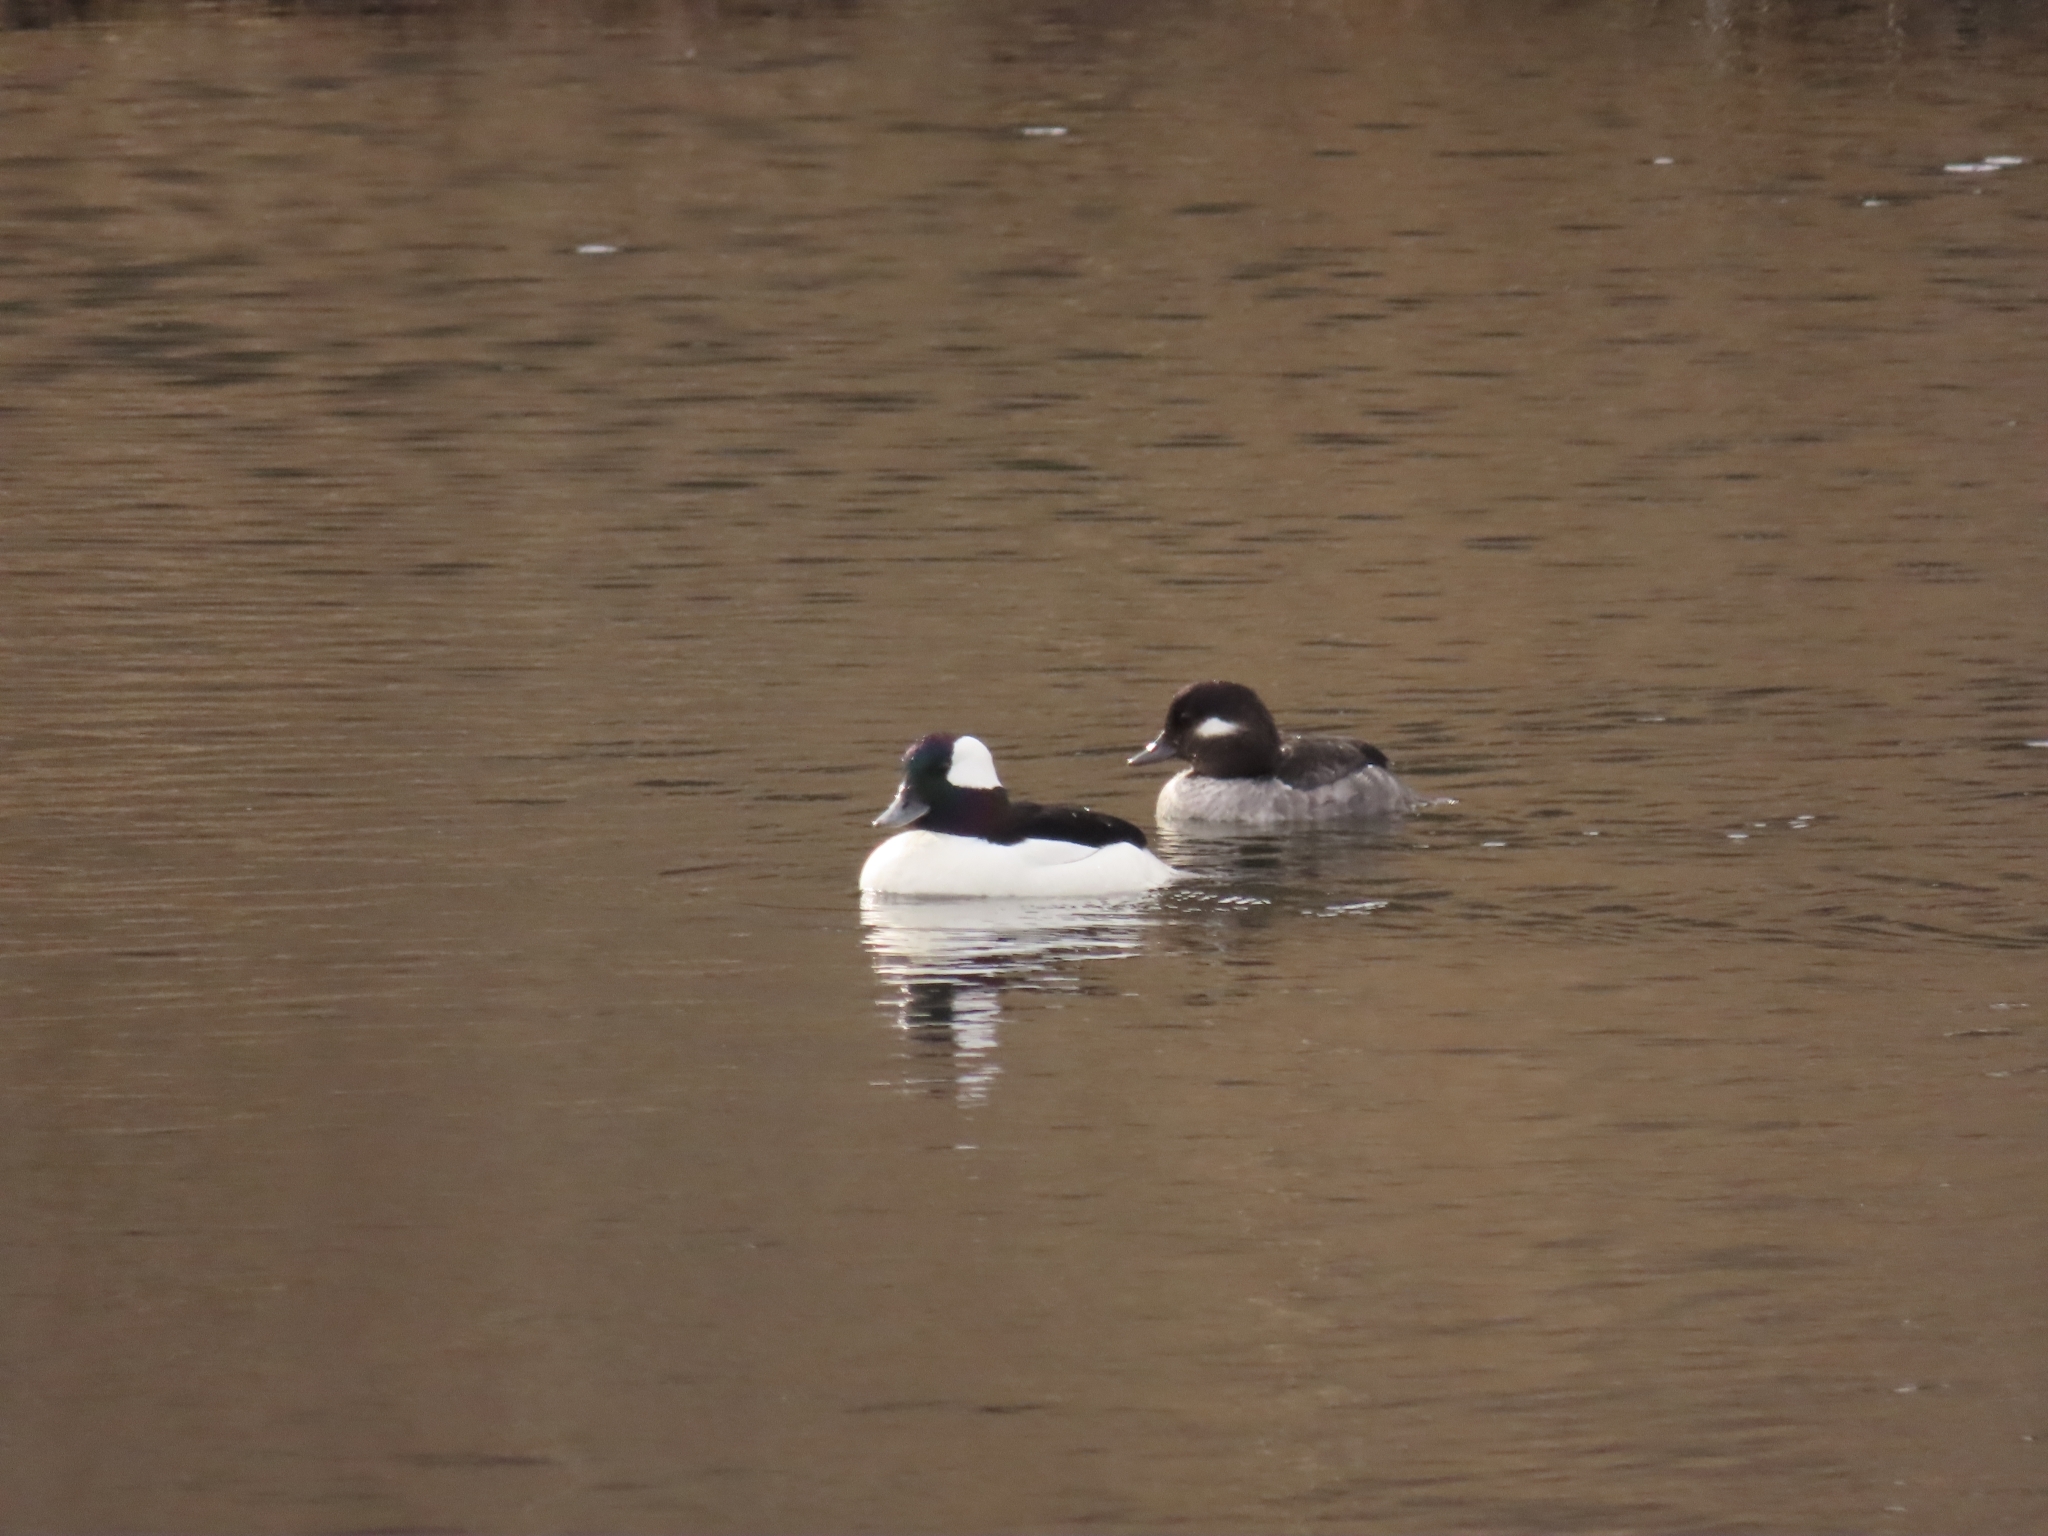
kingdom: Animalia
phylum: Chordata
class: Aves
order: Anseriformes
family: Anatidae
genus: Bucephala
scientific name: Bucephala albeola
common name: Bufflehead
